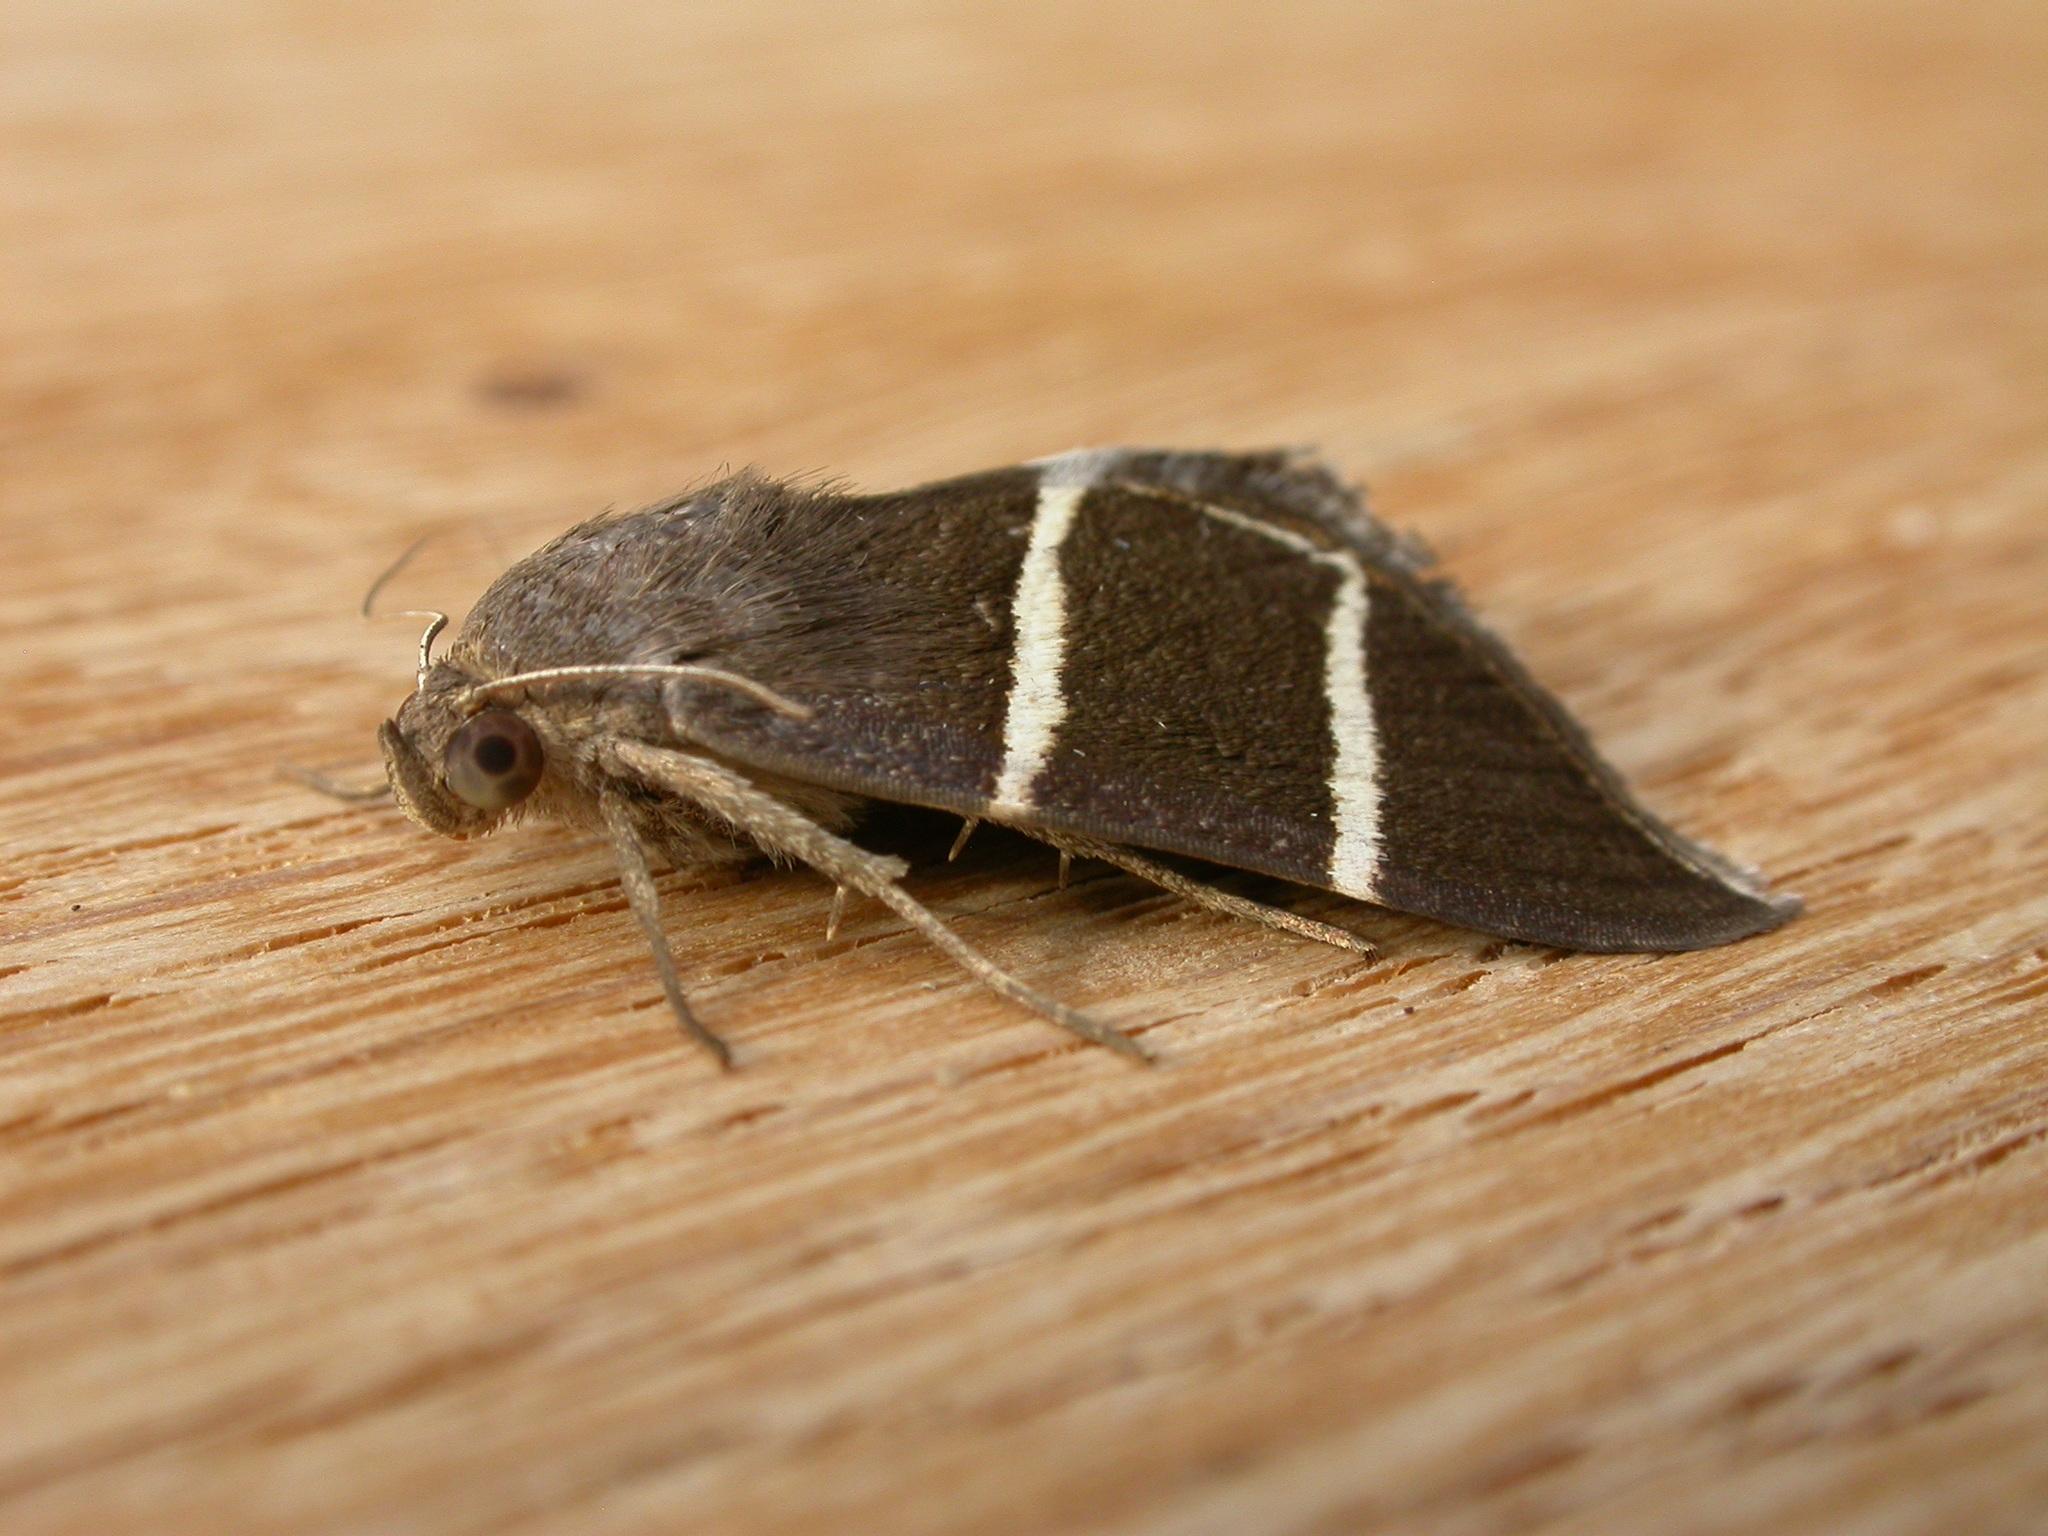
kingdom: Animalia
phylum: Arthropoda
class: Insecta
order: Lepidoptera
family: Erebidae
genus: Grammodes
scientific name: Grammodes justa
